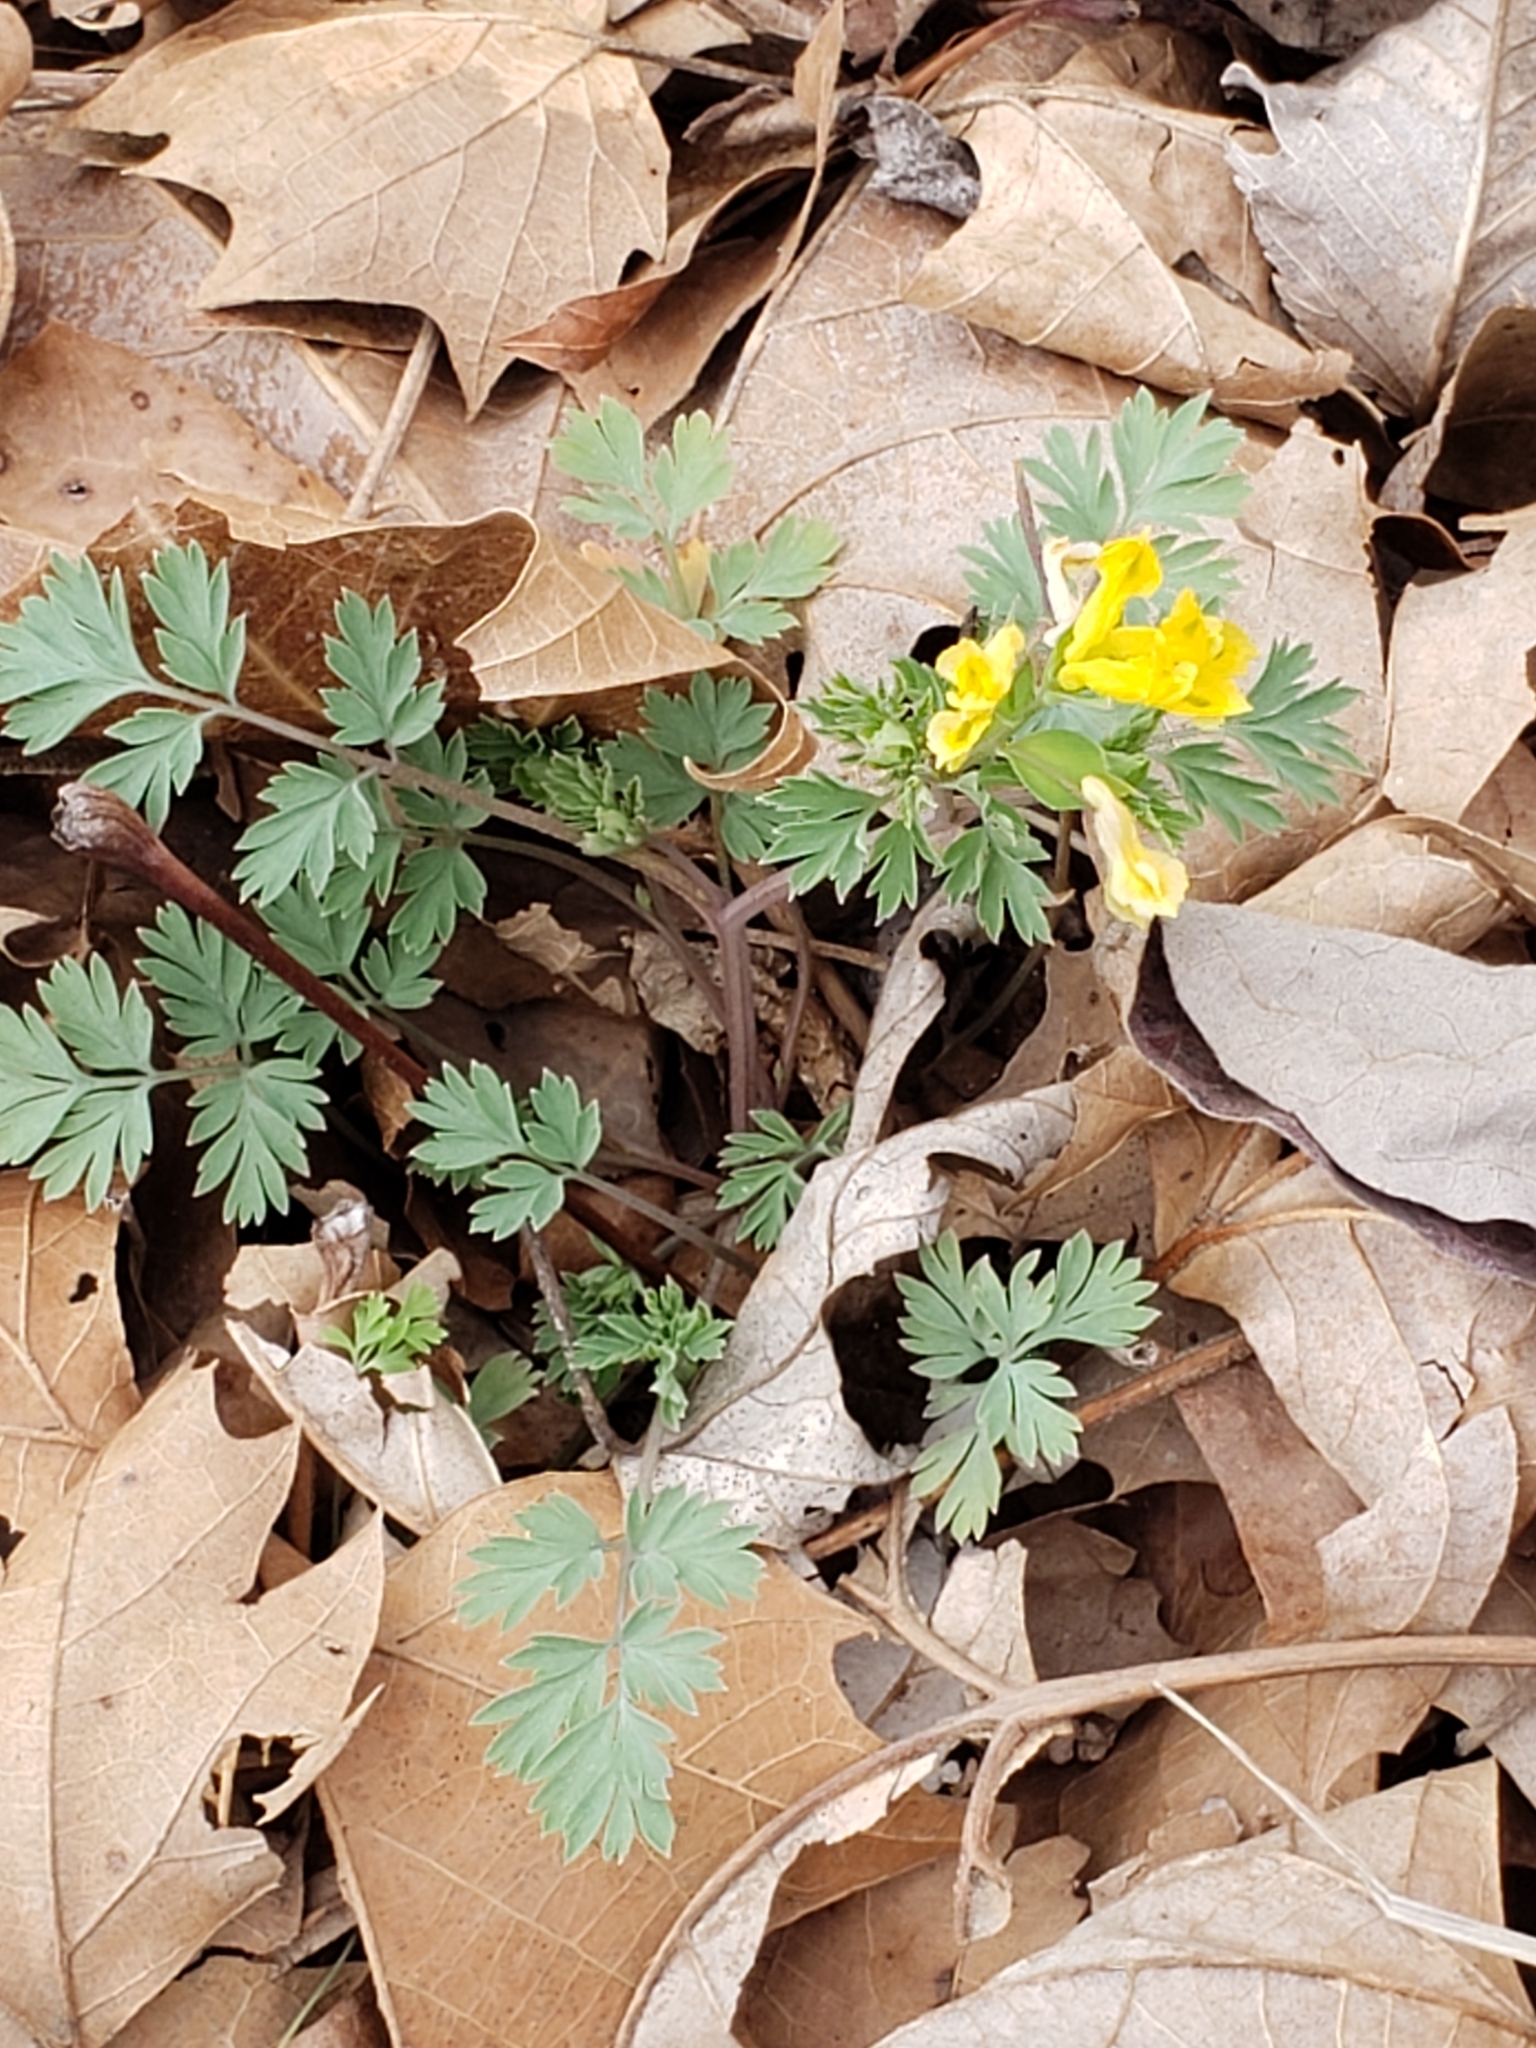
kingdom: Plantae
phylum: Tracheophyta
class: Magnoliopsida
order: Ranunculales
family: Papaveraceae
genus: Corydalis
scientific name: Corydalis flavula
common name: Yellow corydalis
